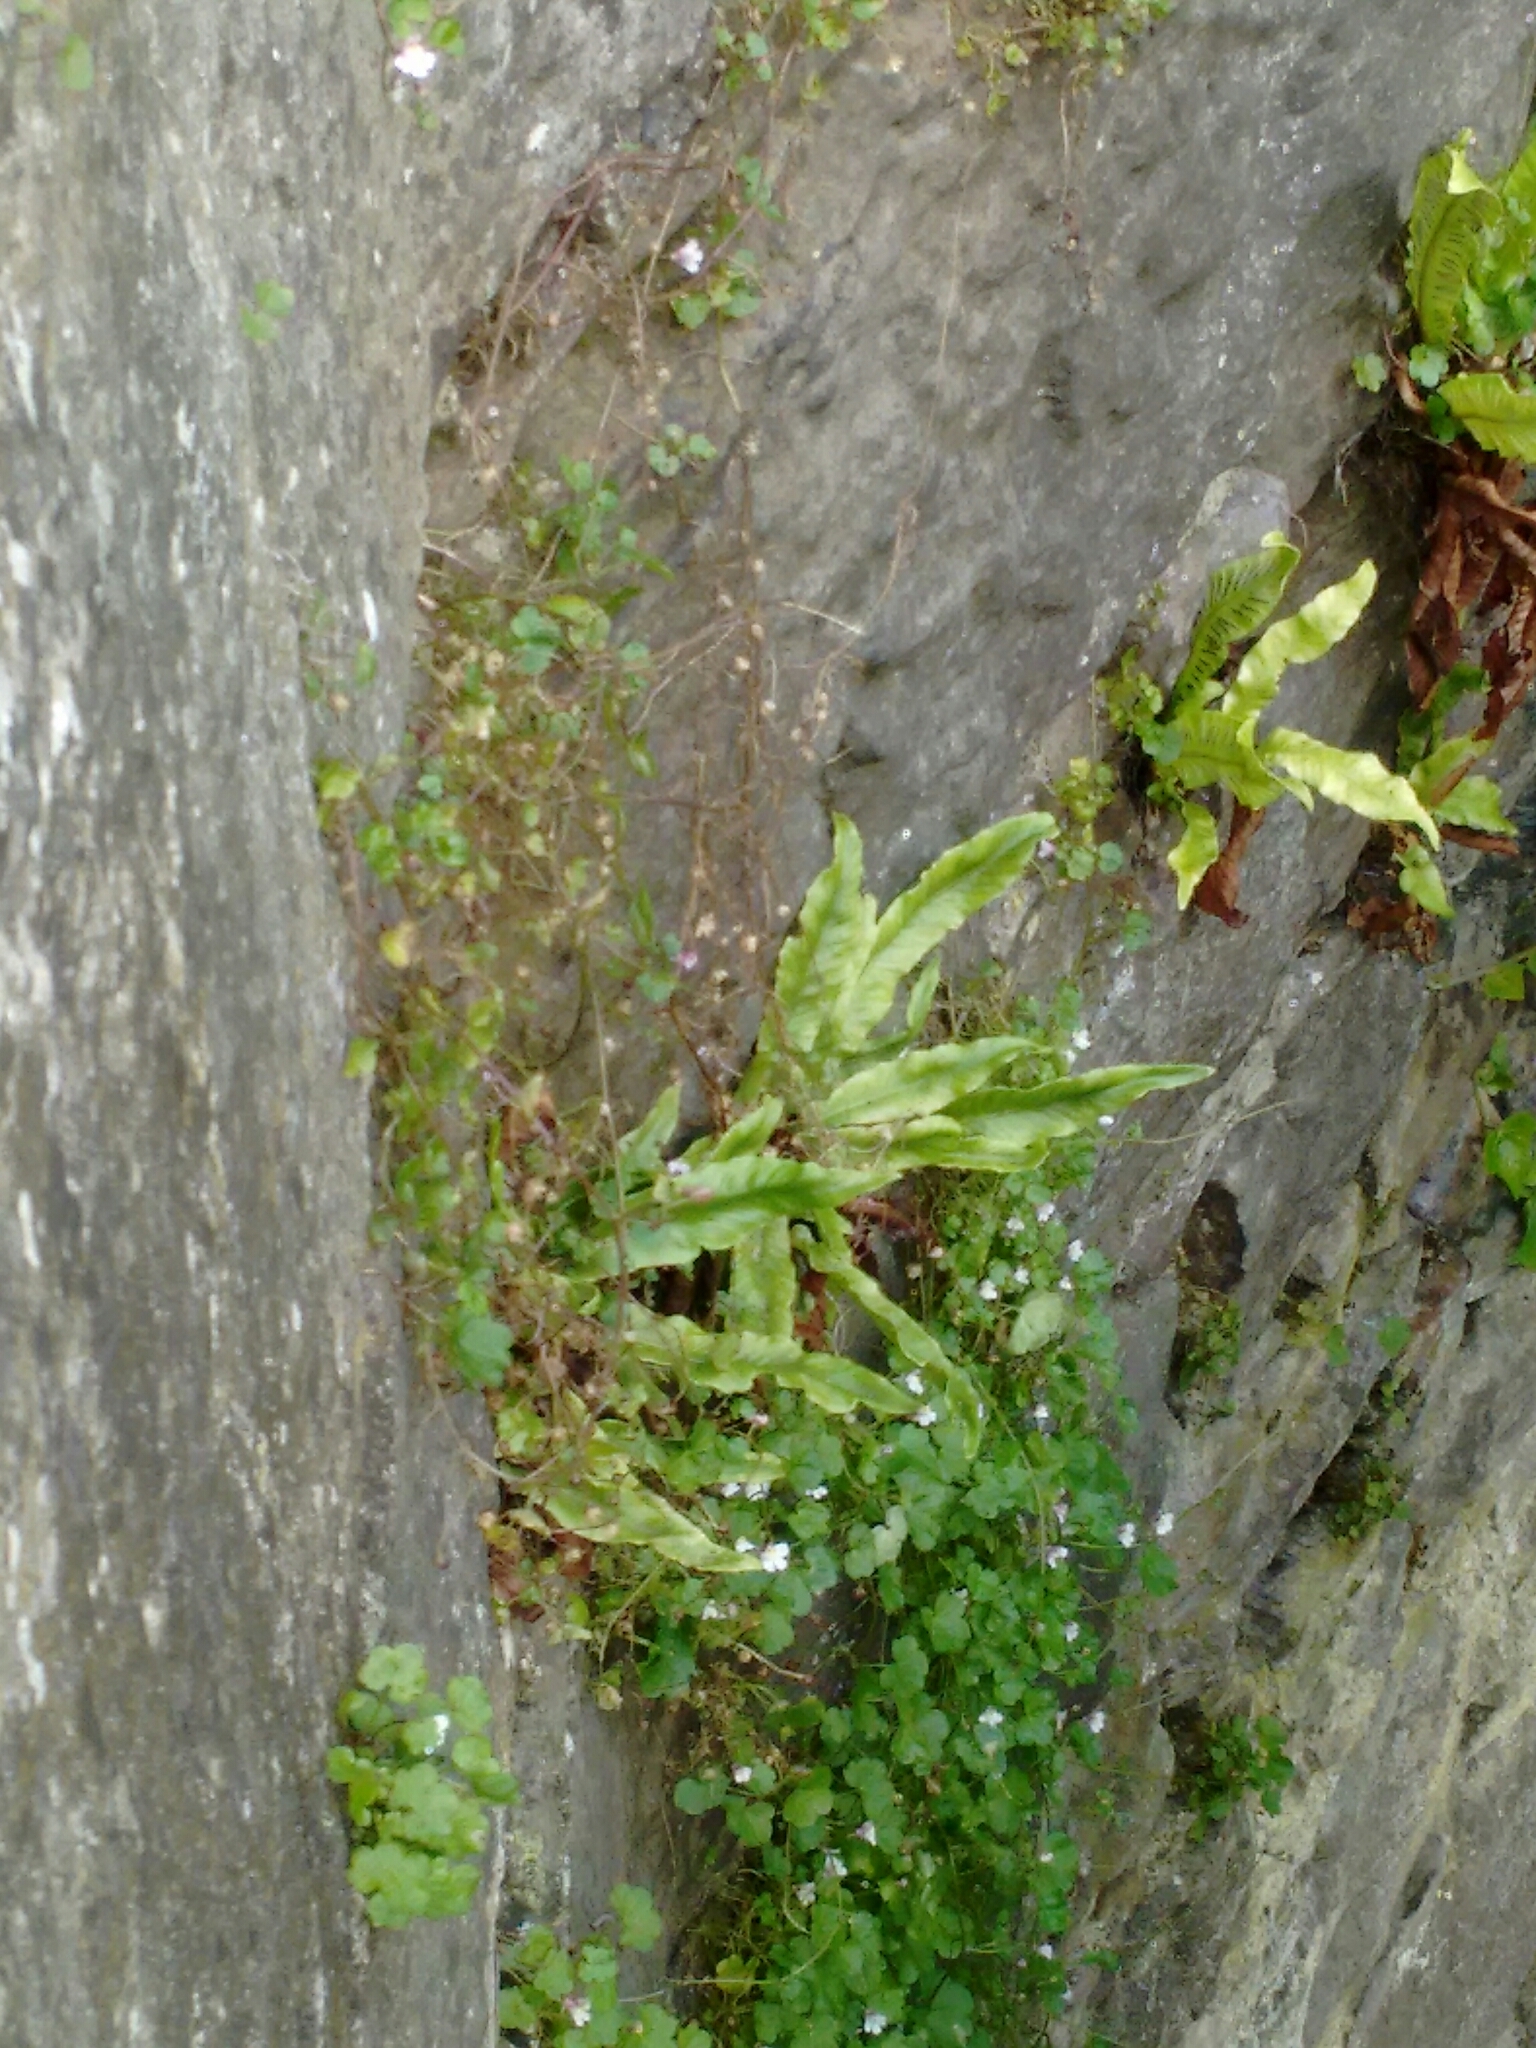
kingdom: Plantae
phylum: Tracheophyta
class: Polypodiopsida
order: Polypodiales
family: Aspleniaceae
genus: Asplenium
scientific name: Asplenium scolopendrium
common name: Hart's-tongue fern
